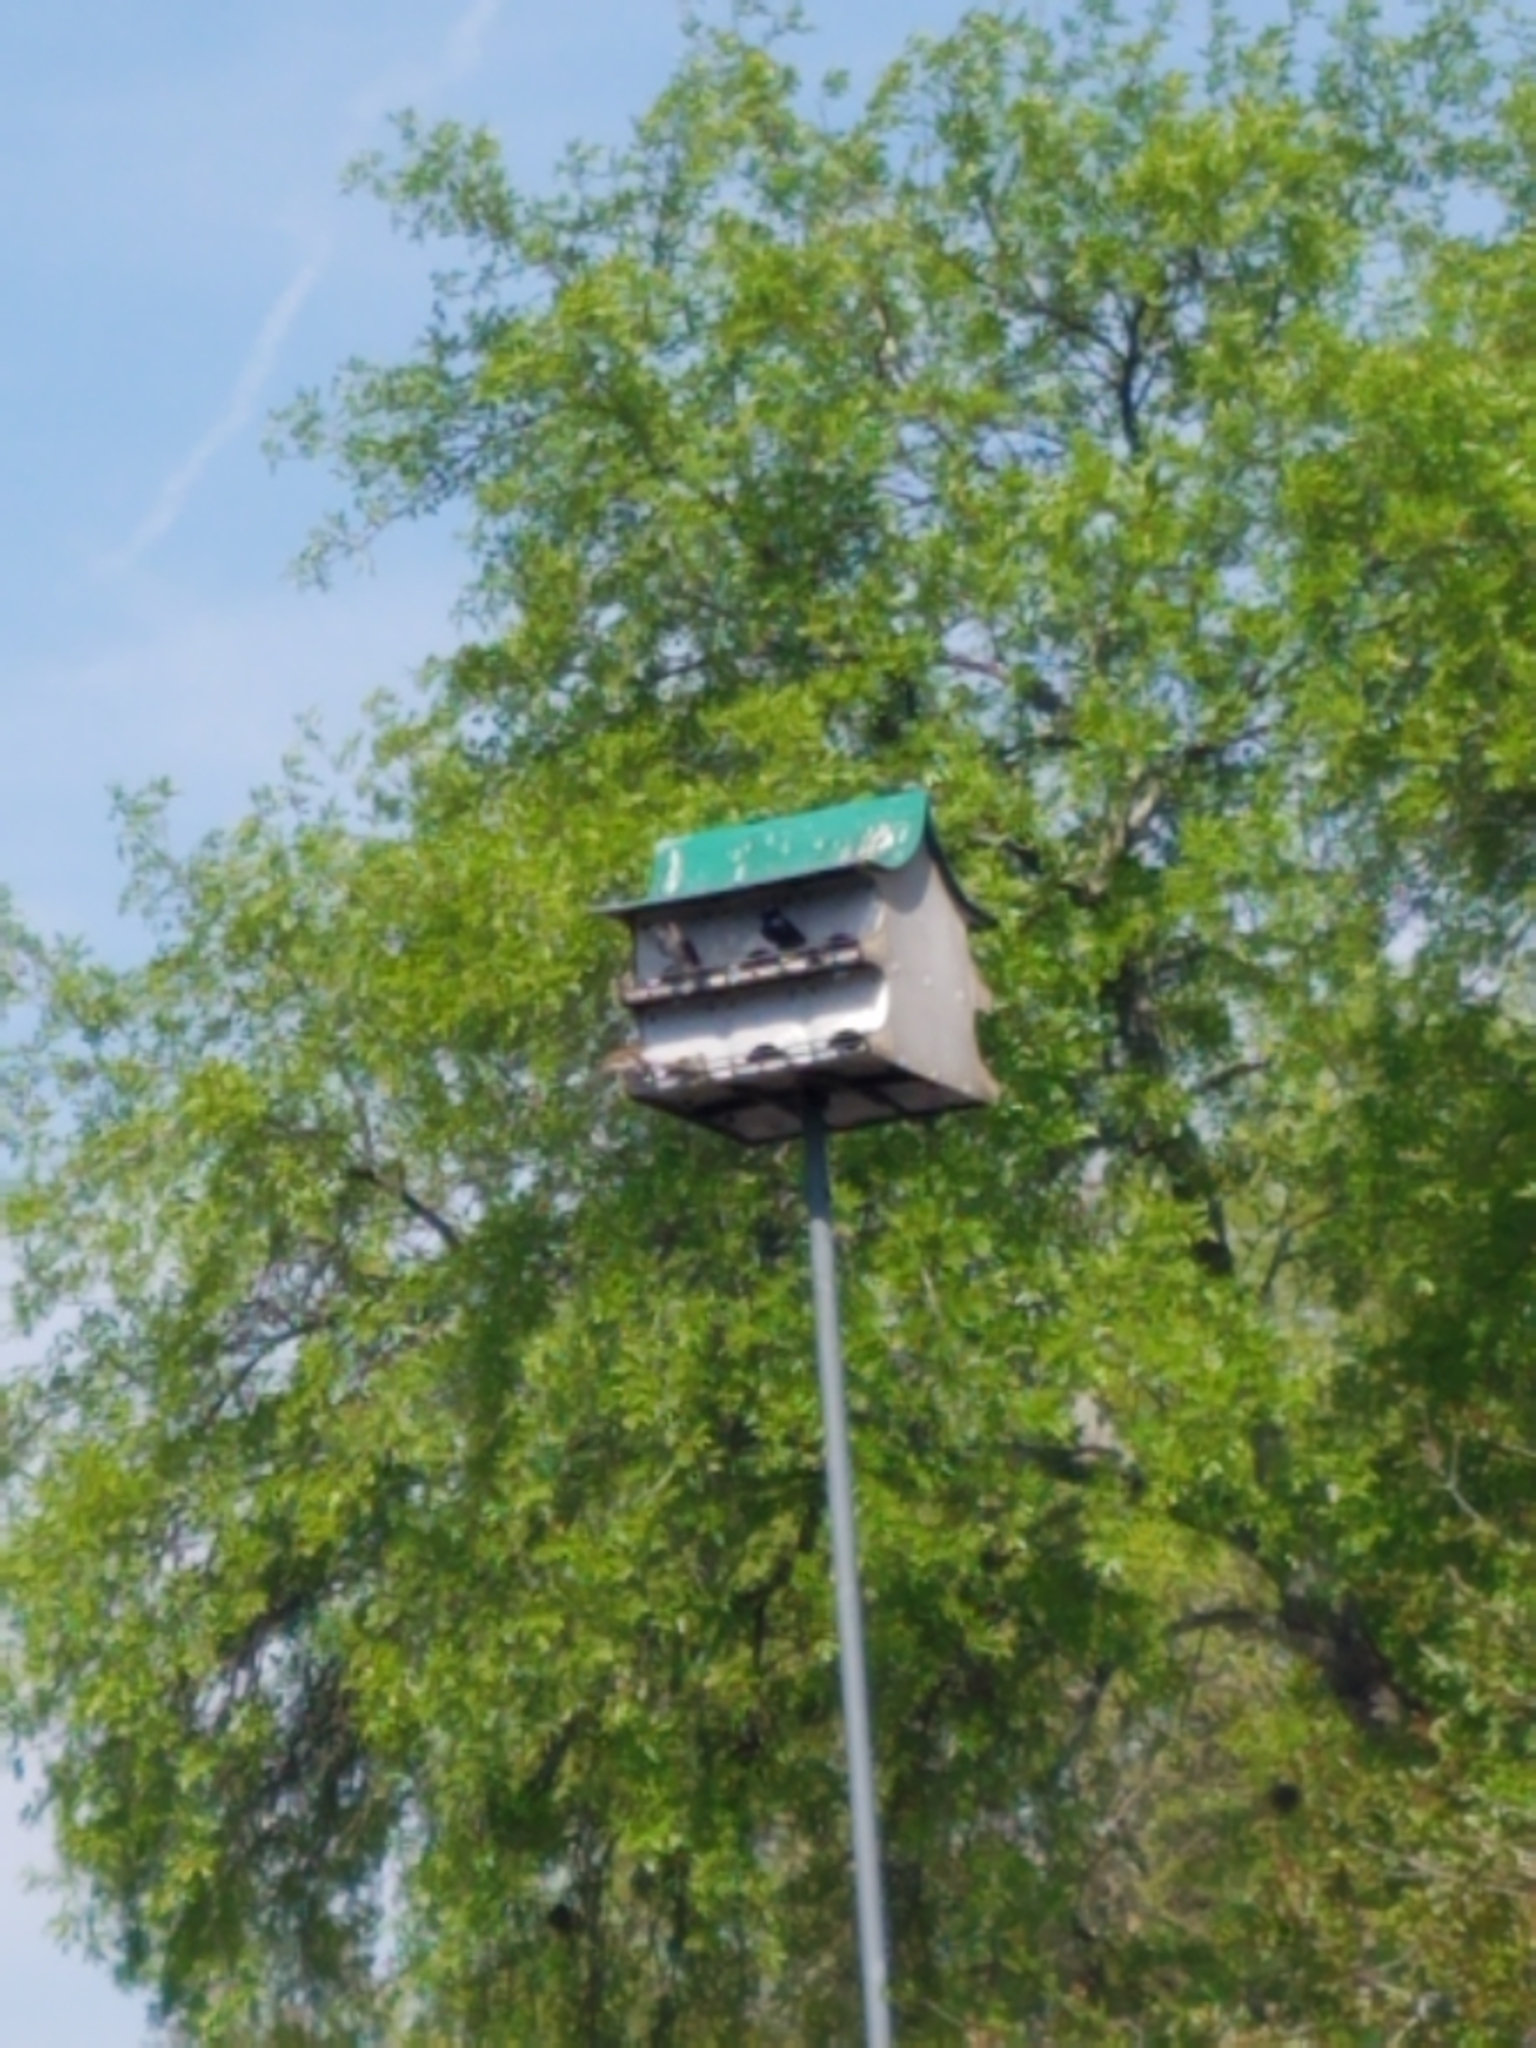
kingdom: Animalia
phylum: Chordata
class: Aves
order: Passeriformes
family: Hirundinidae
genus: Progne
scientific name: Progne subis
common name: Purple martin
